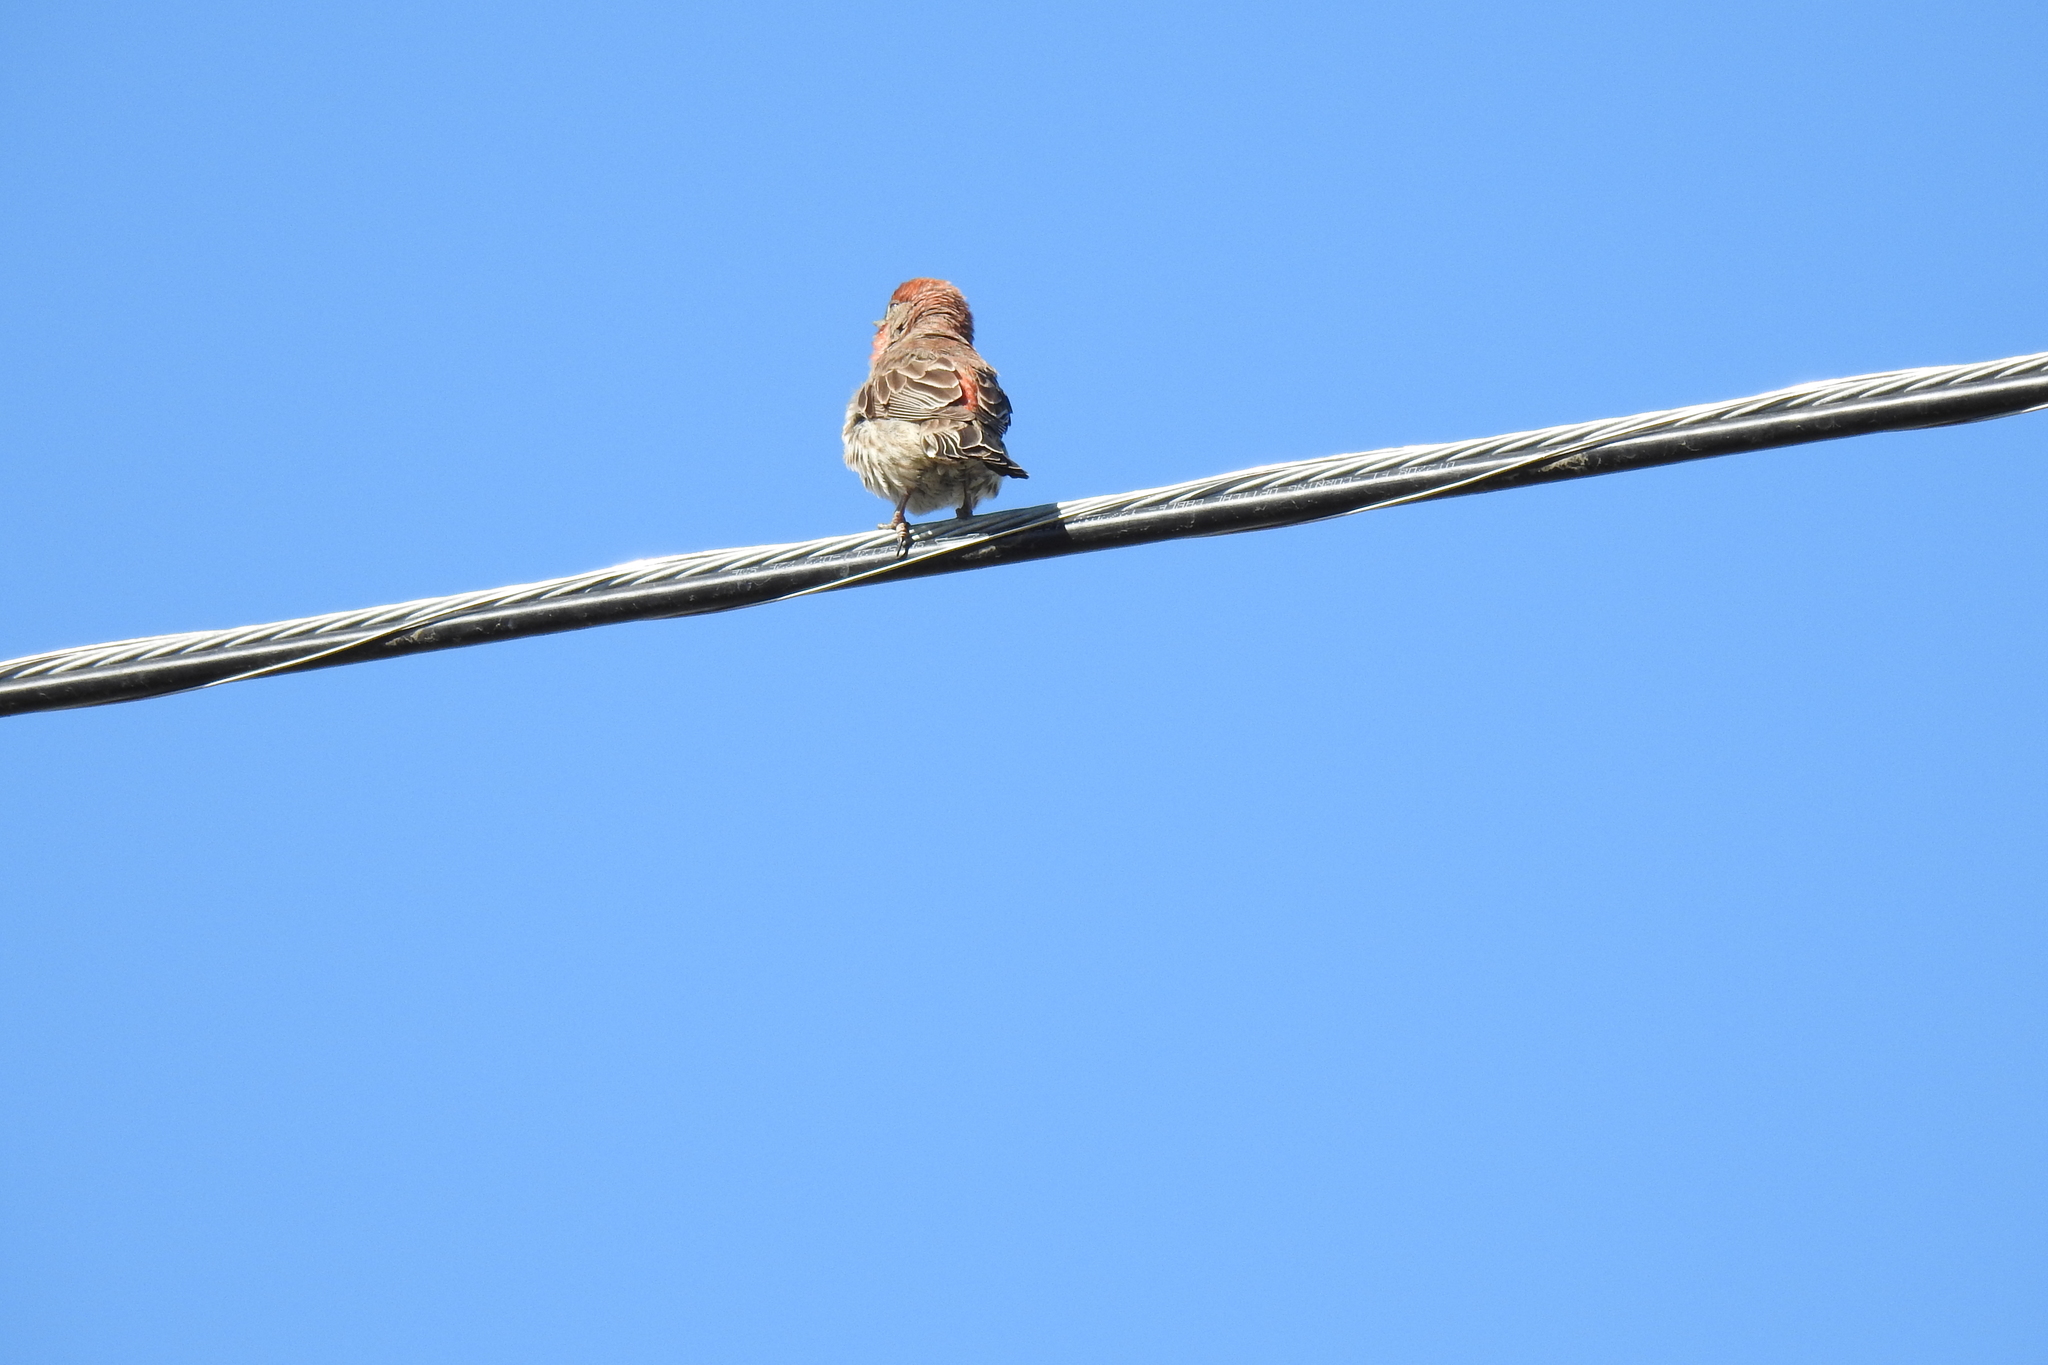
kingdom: Animalia
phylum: Chordata
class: Aves
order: Passeriformes
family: Fringillidae
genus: Haemorhous
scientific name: Haemorhous mexicanus
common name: House finch
